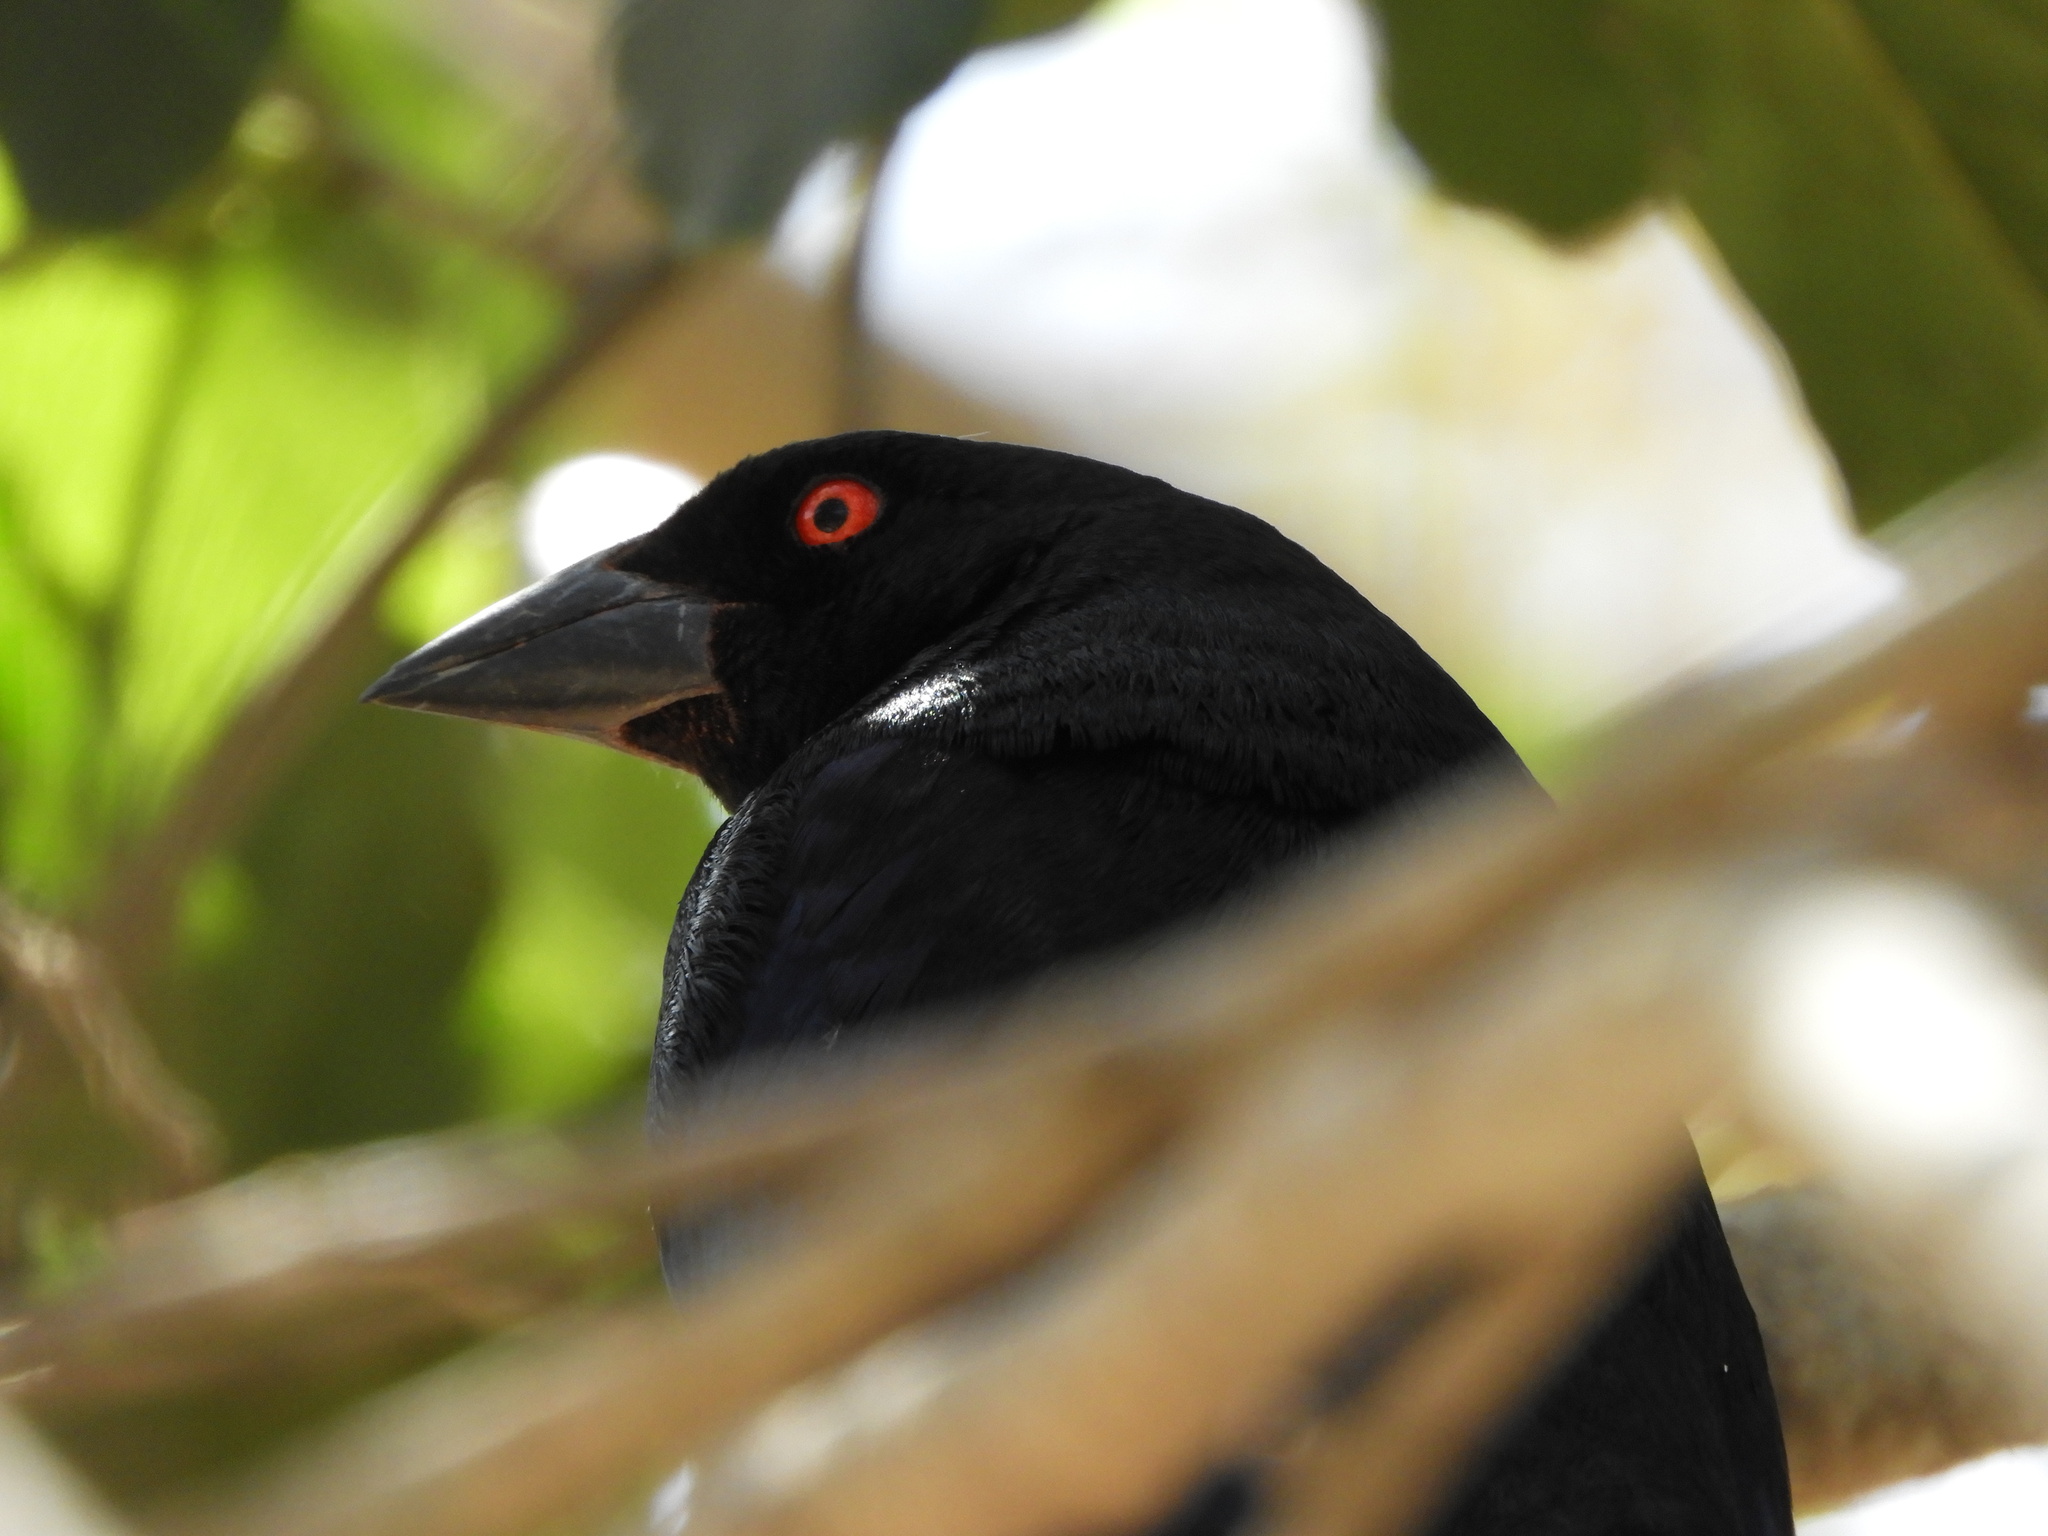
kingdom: Animalia
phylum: Chordata
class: Aves
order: Passeriformes
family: Icteridae
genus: Molothrus
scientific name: Molothrus aeneus
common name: Bronzed cowbird
